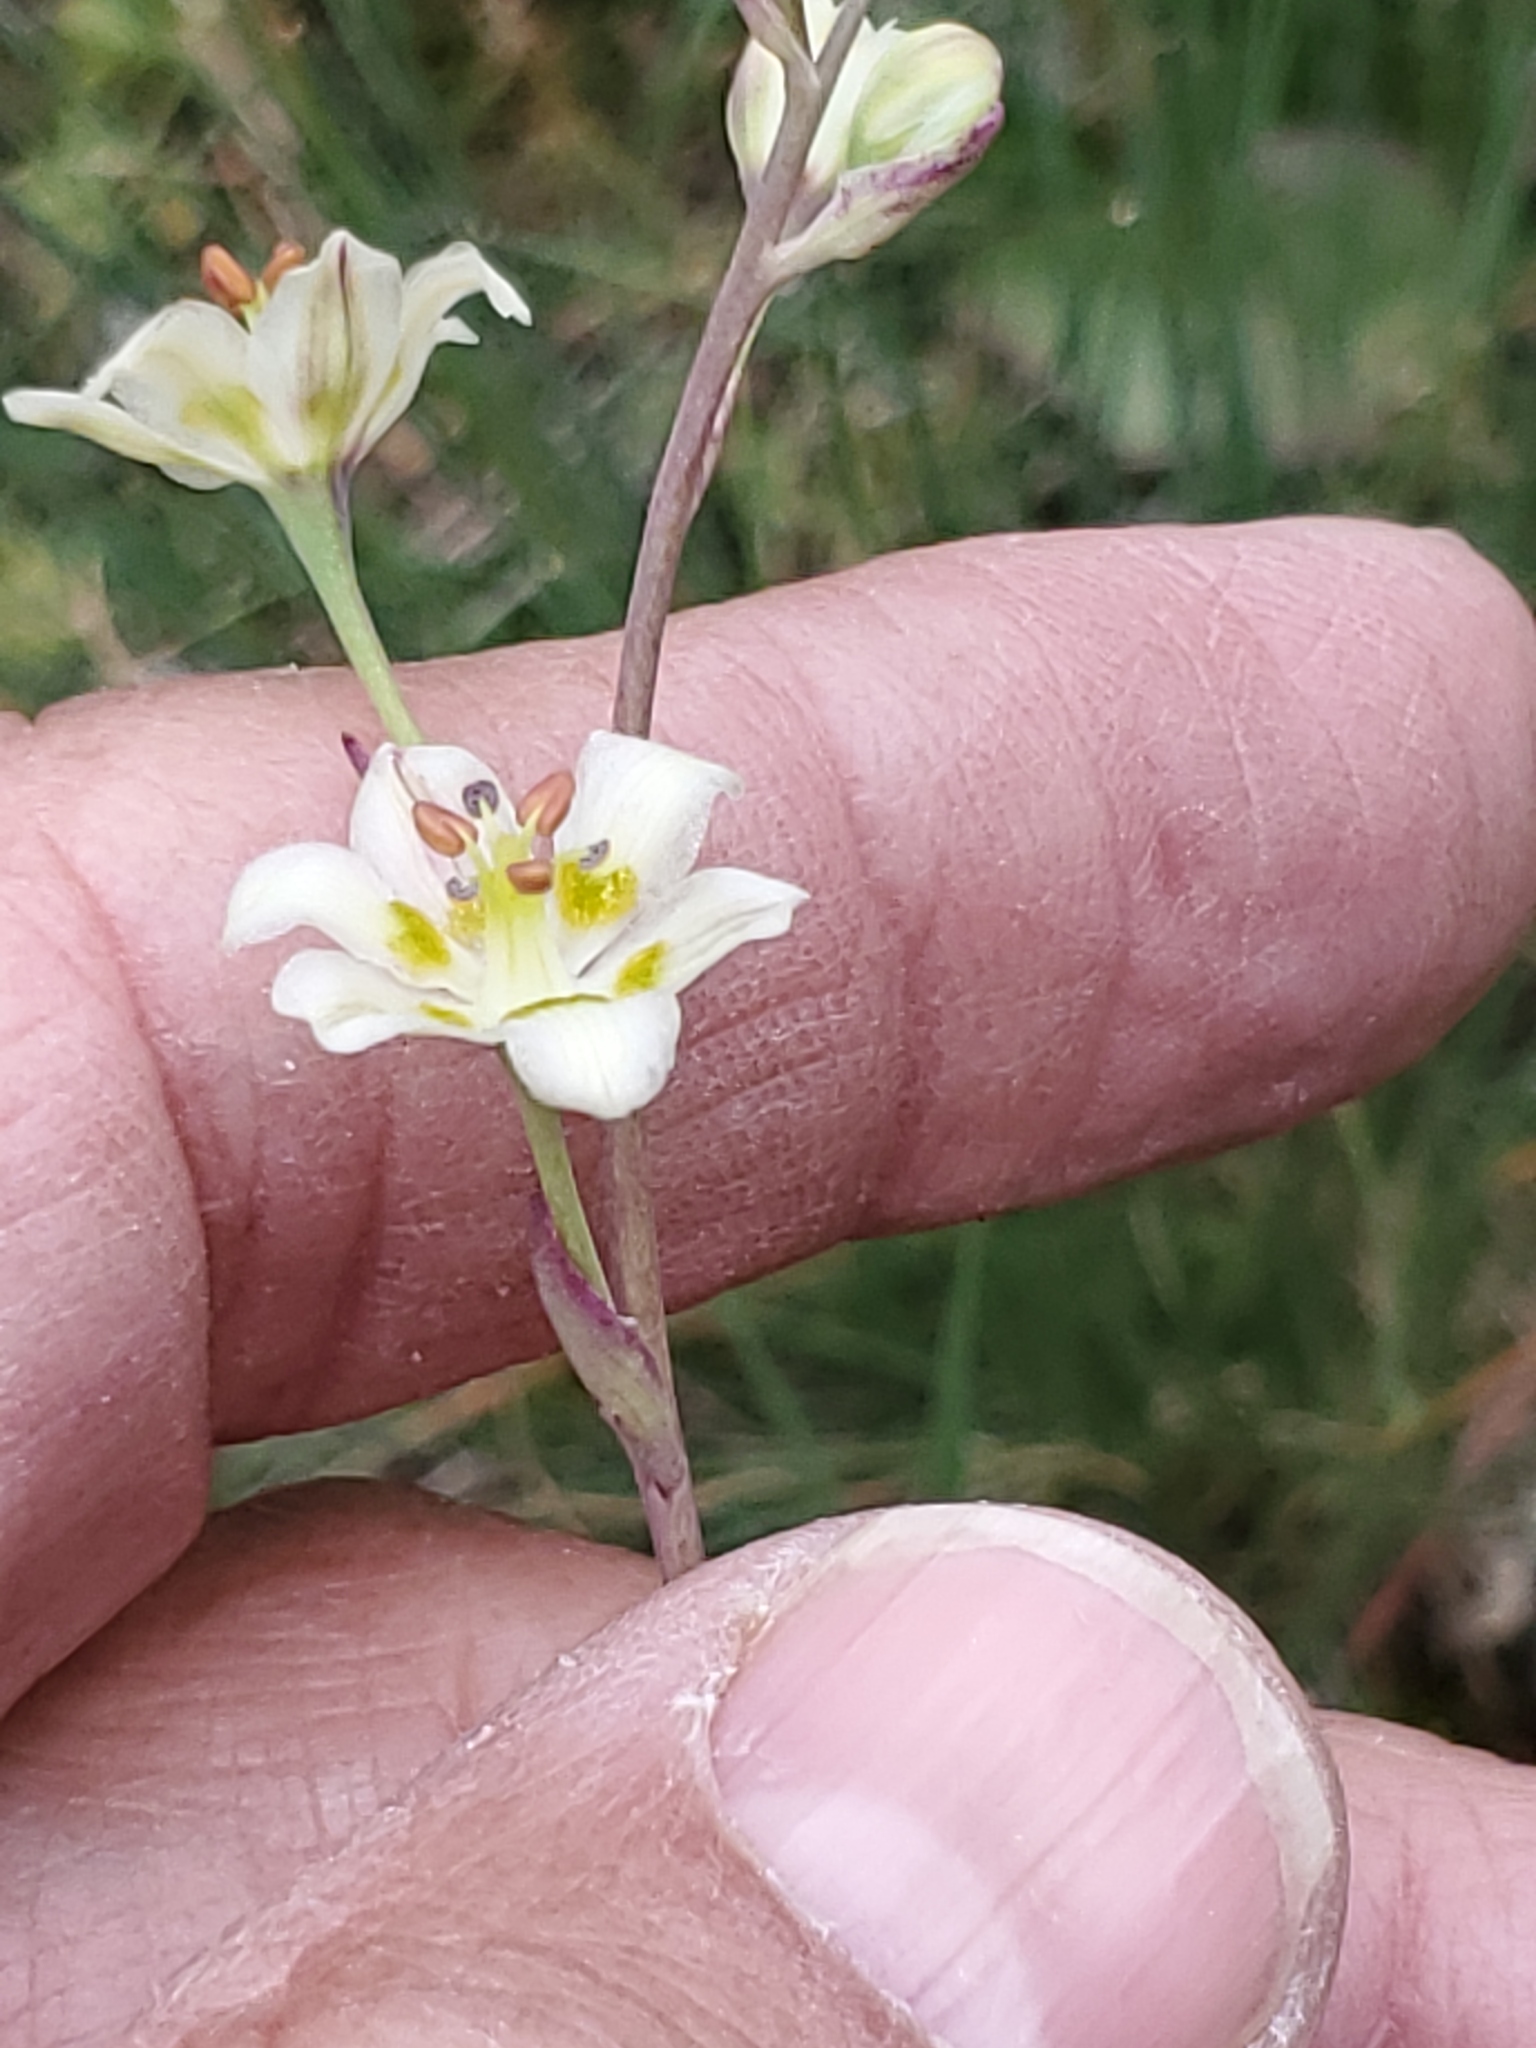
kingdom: Plantae
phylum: Tracheophyta
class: Liliopsida
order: Liliales
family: Melanthiaceae
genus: Anticlea
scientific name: Anticlea elegans
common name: Mountain death camas
